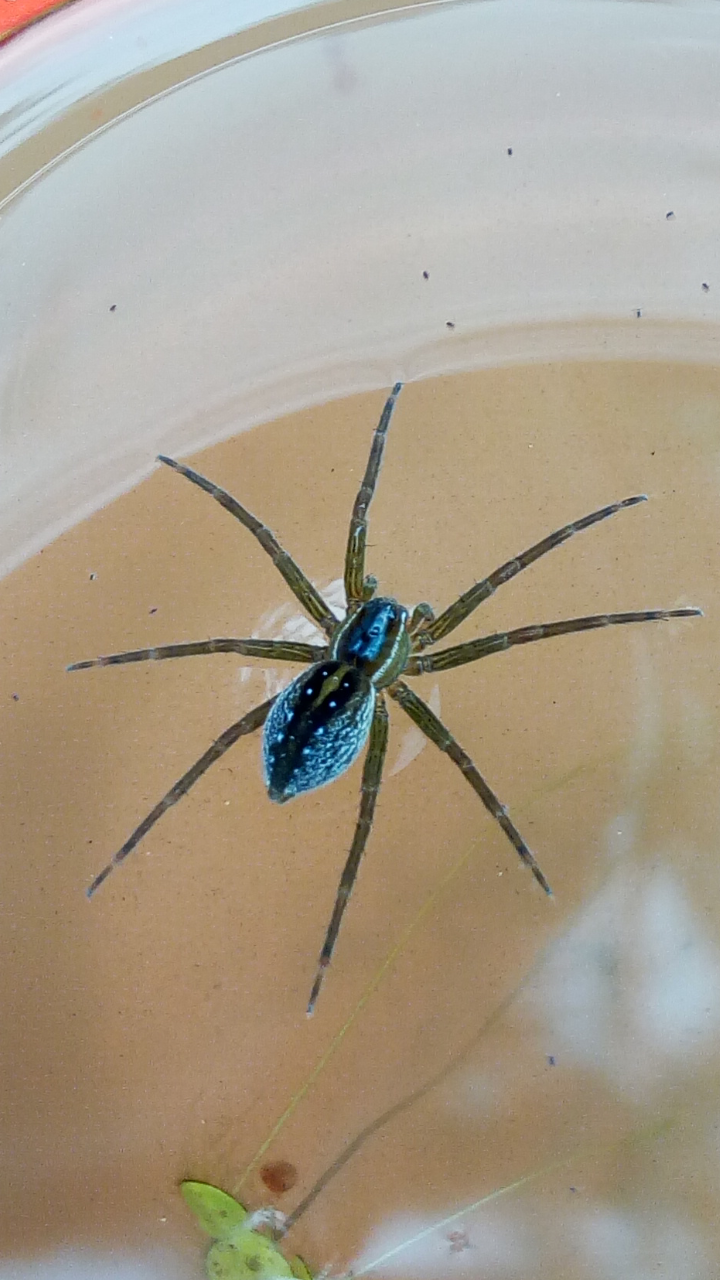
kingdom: Animalia
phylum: Arthropoda
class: Arachnida
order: Araneae
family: Pisauridae
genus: Dolomedes
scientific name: Dolomedes triton
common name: Six-spotted fishing spider
